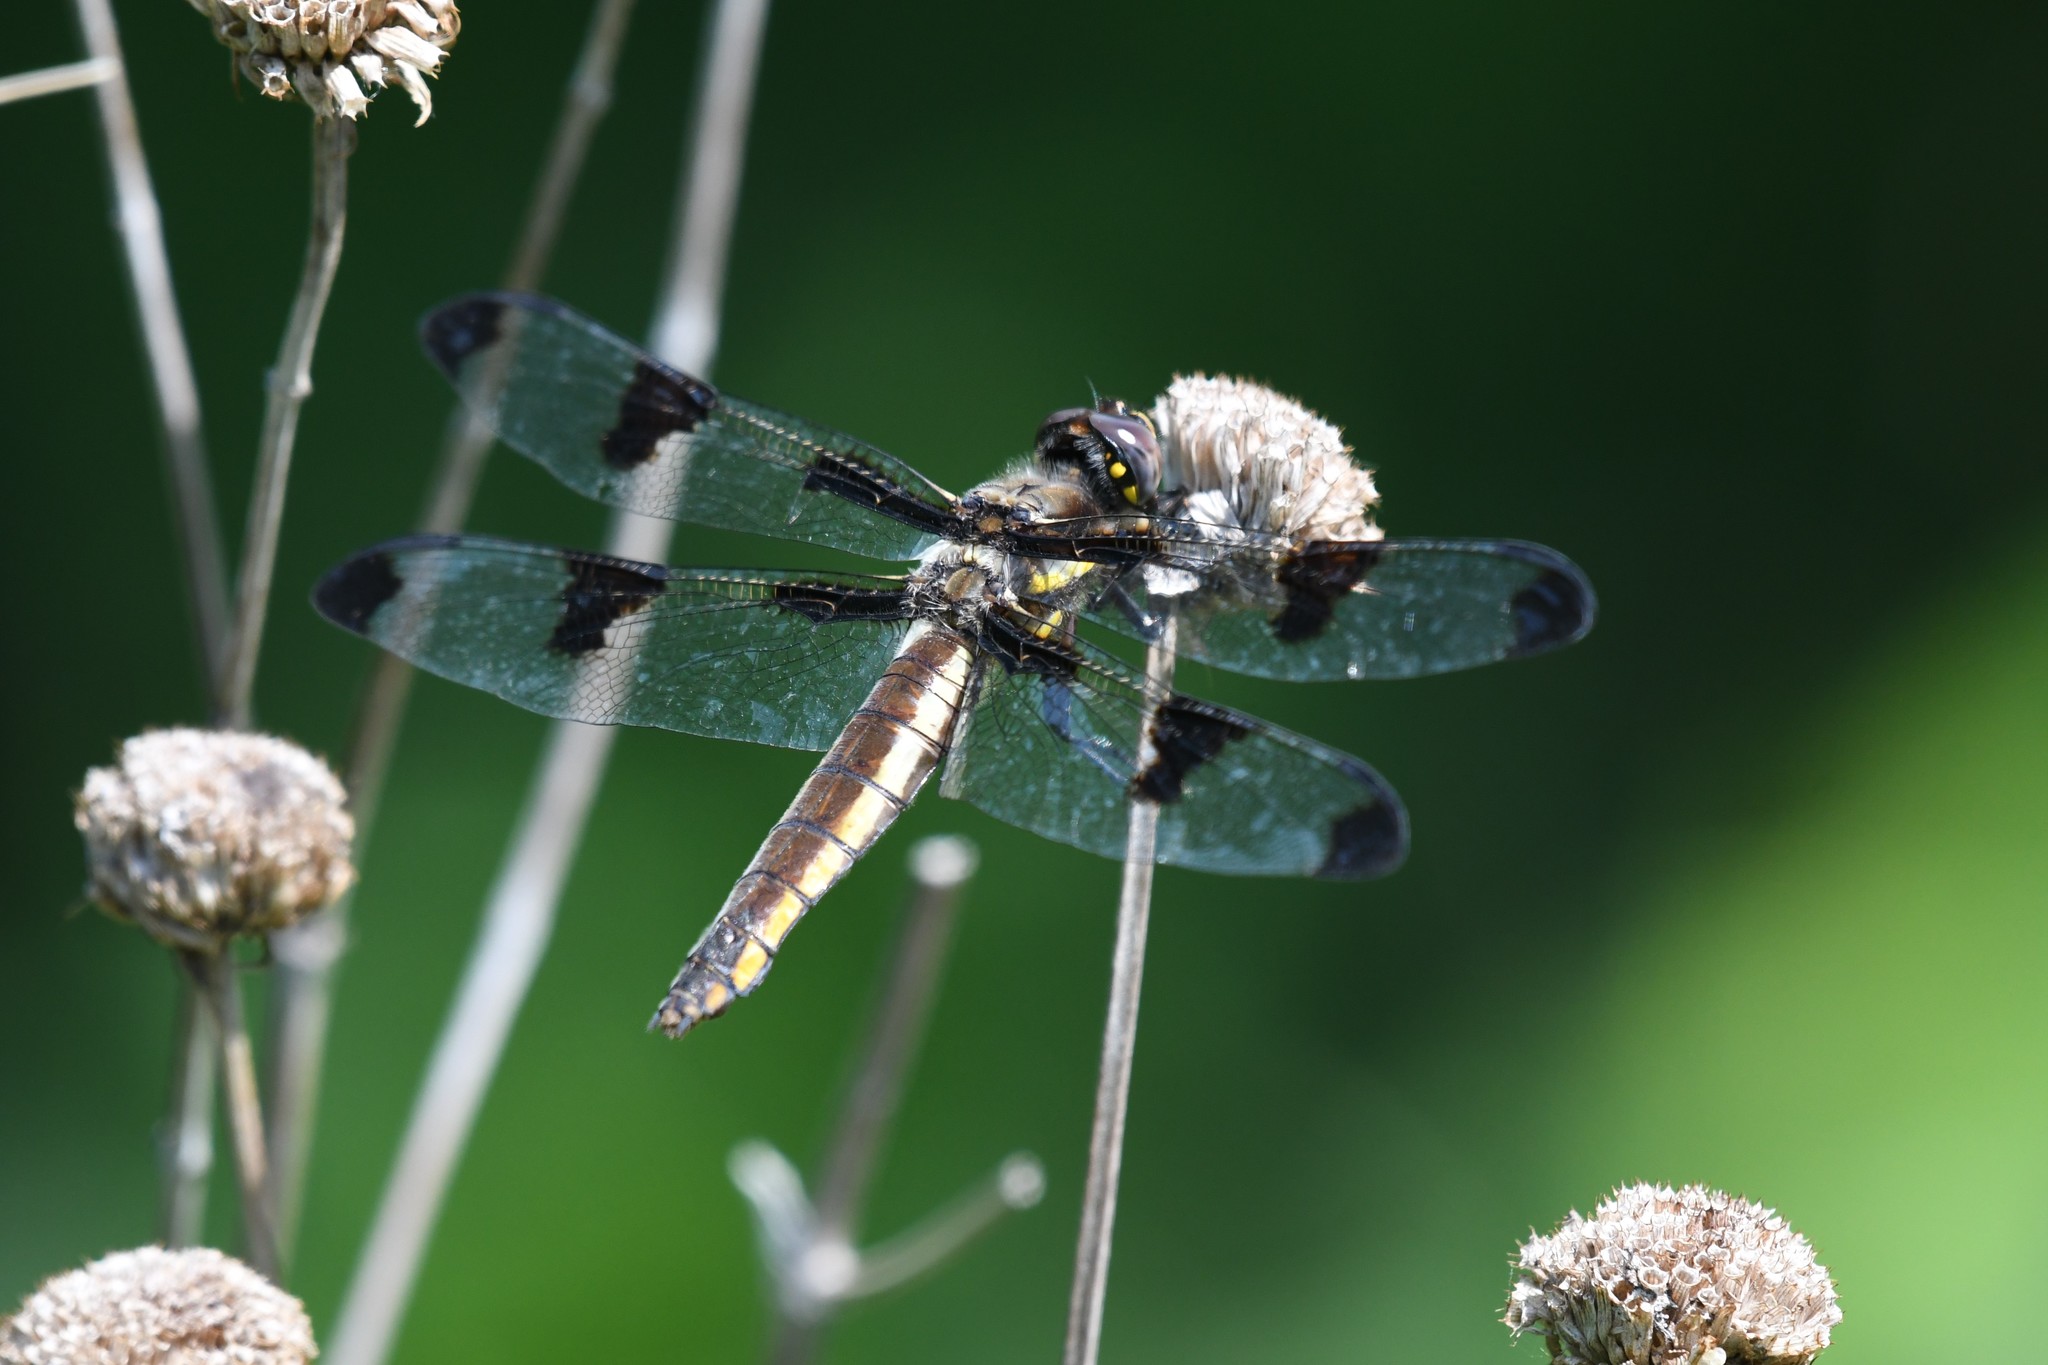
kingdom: Animalia
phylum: Arthropoda
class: Insecta
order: Odonata
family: Libellulidae
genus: Libellula
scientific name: Libellula pulchella
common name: Twelve-spotted skimmer
